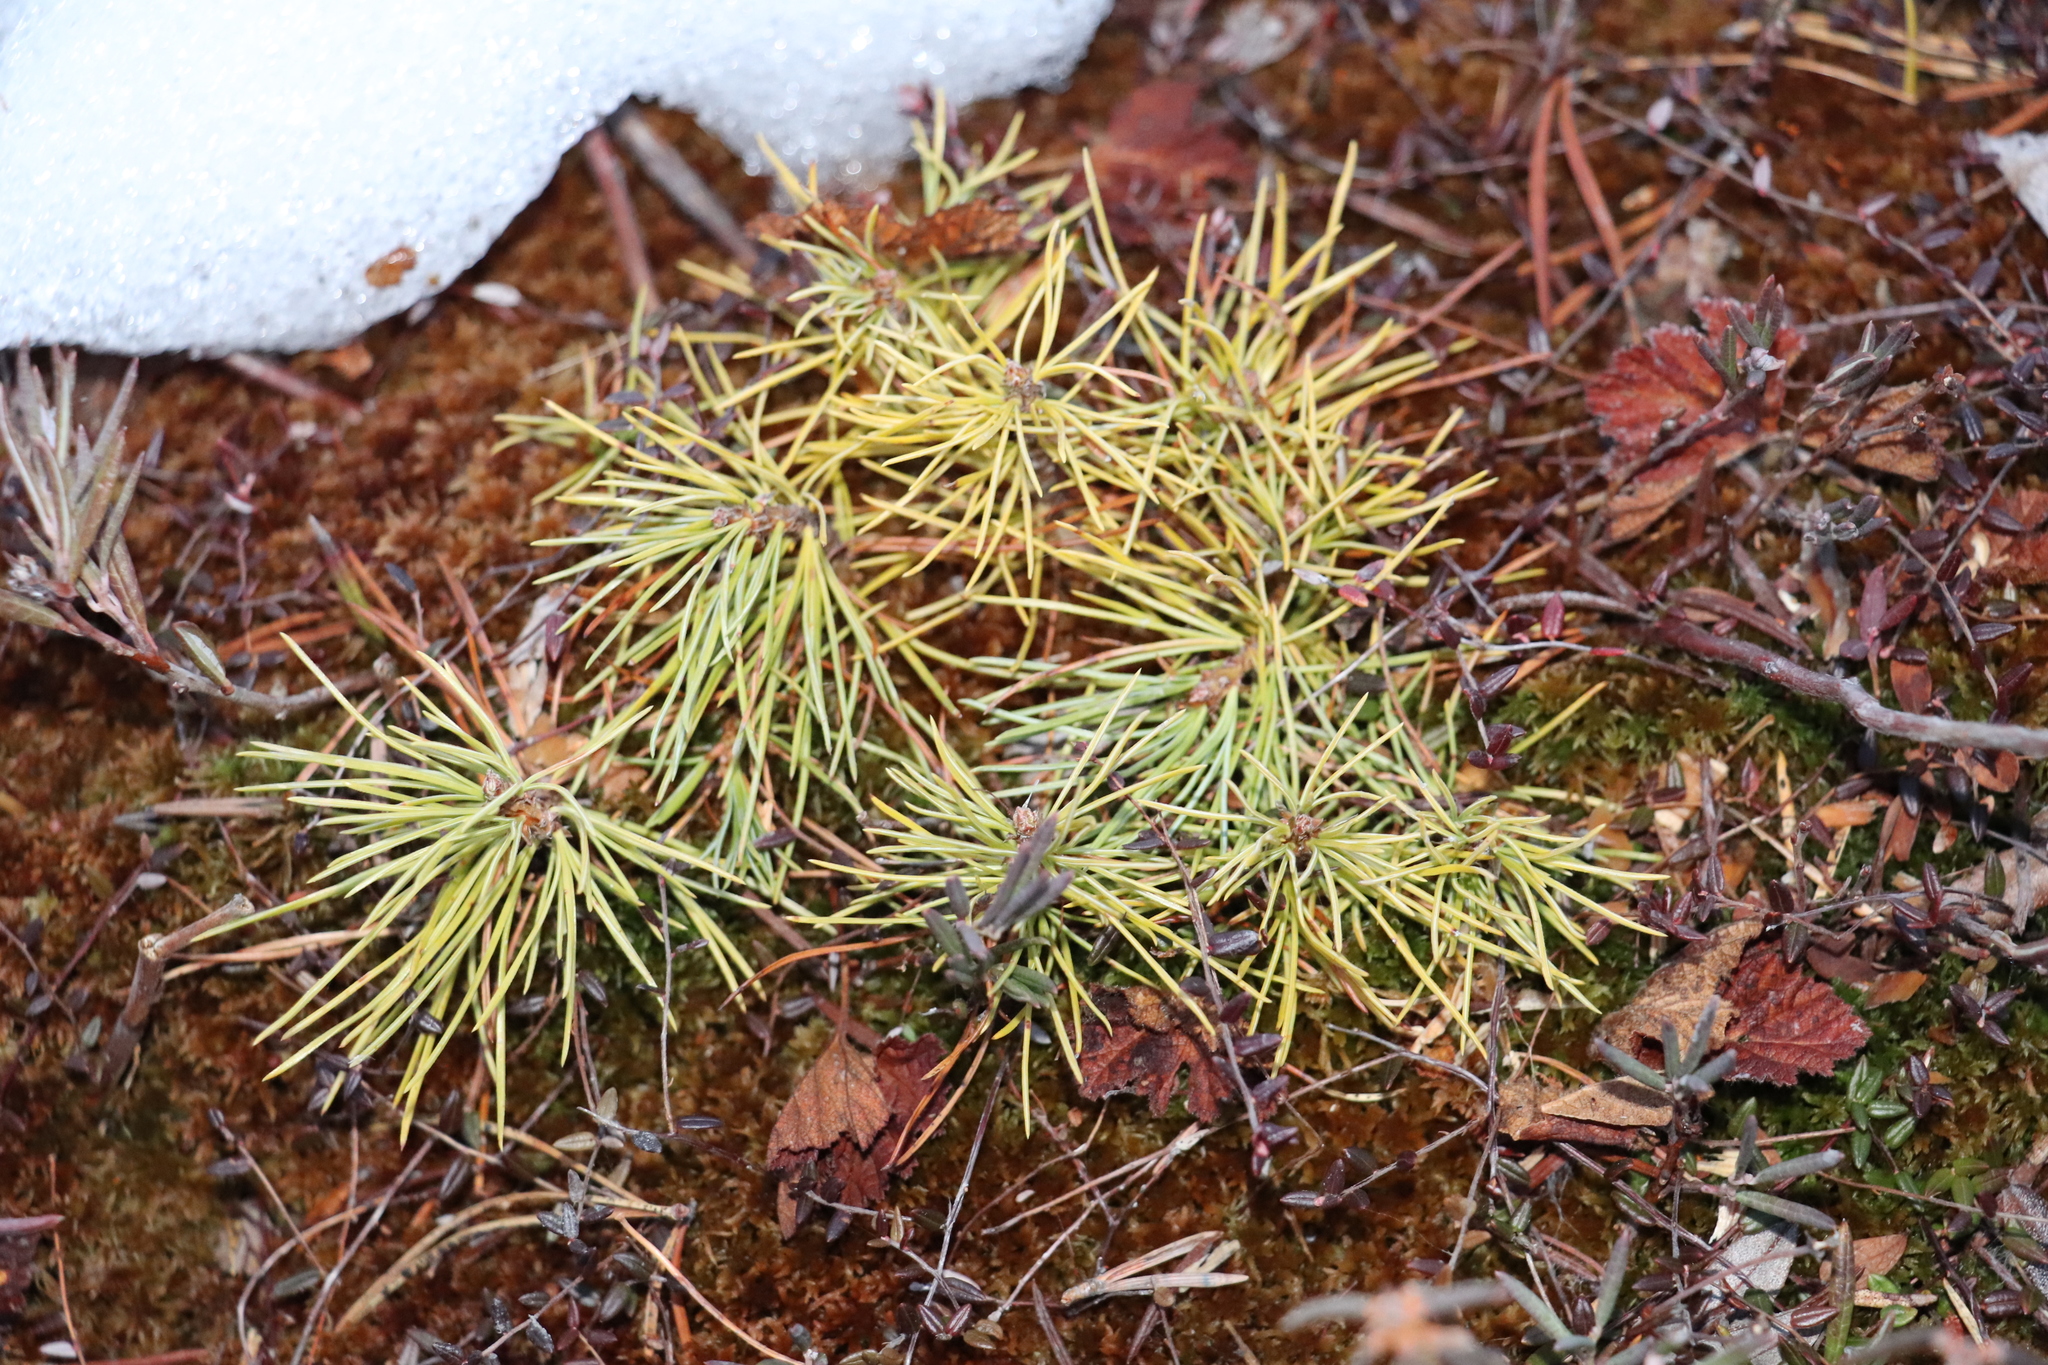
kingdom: Plantae
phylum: Tracheophyta
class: Pinopsida
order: Pinales
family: Pinaceae
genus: Pinus
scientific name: Pinus sylvestris
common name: Scots pine
